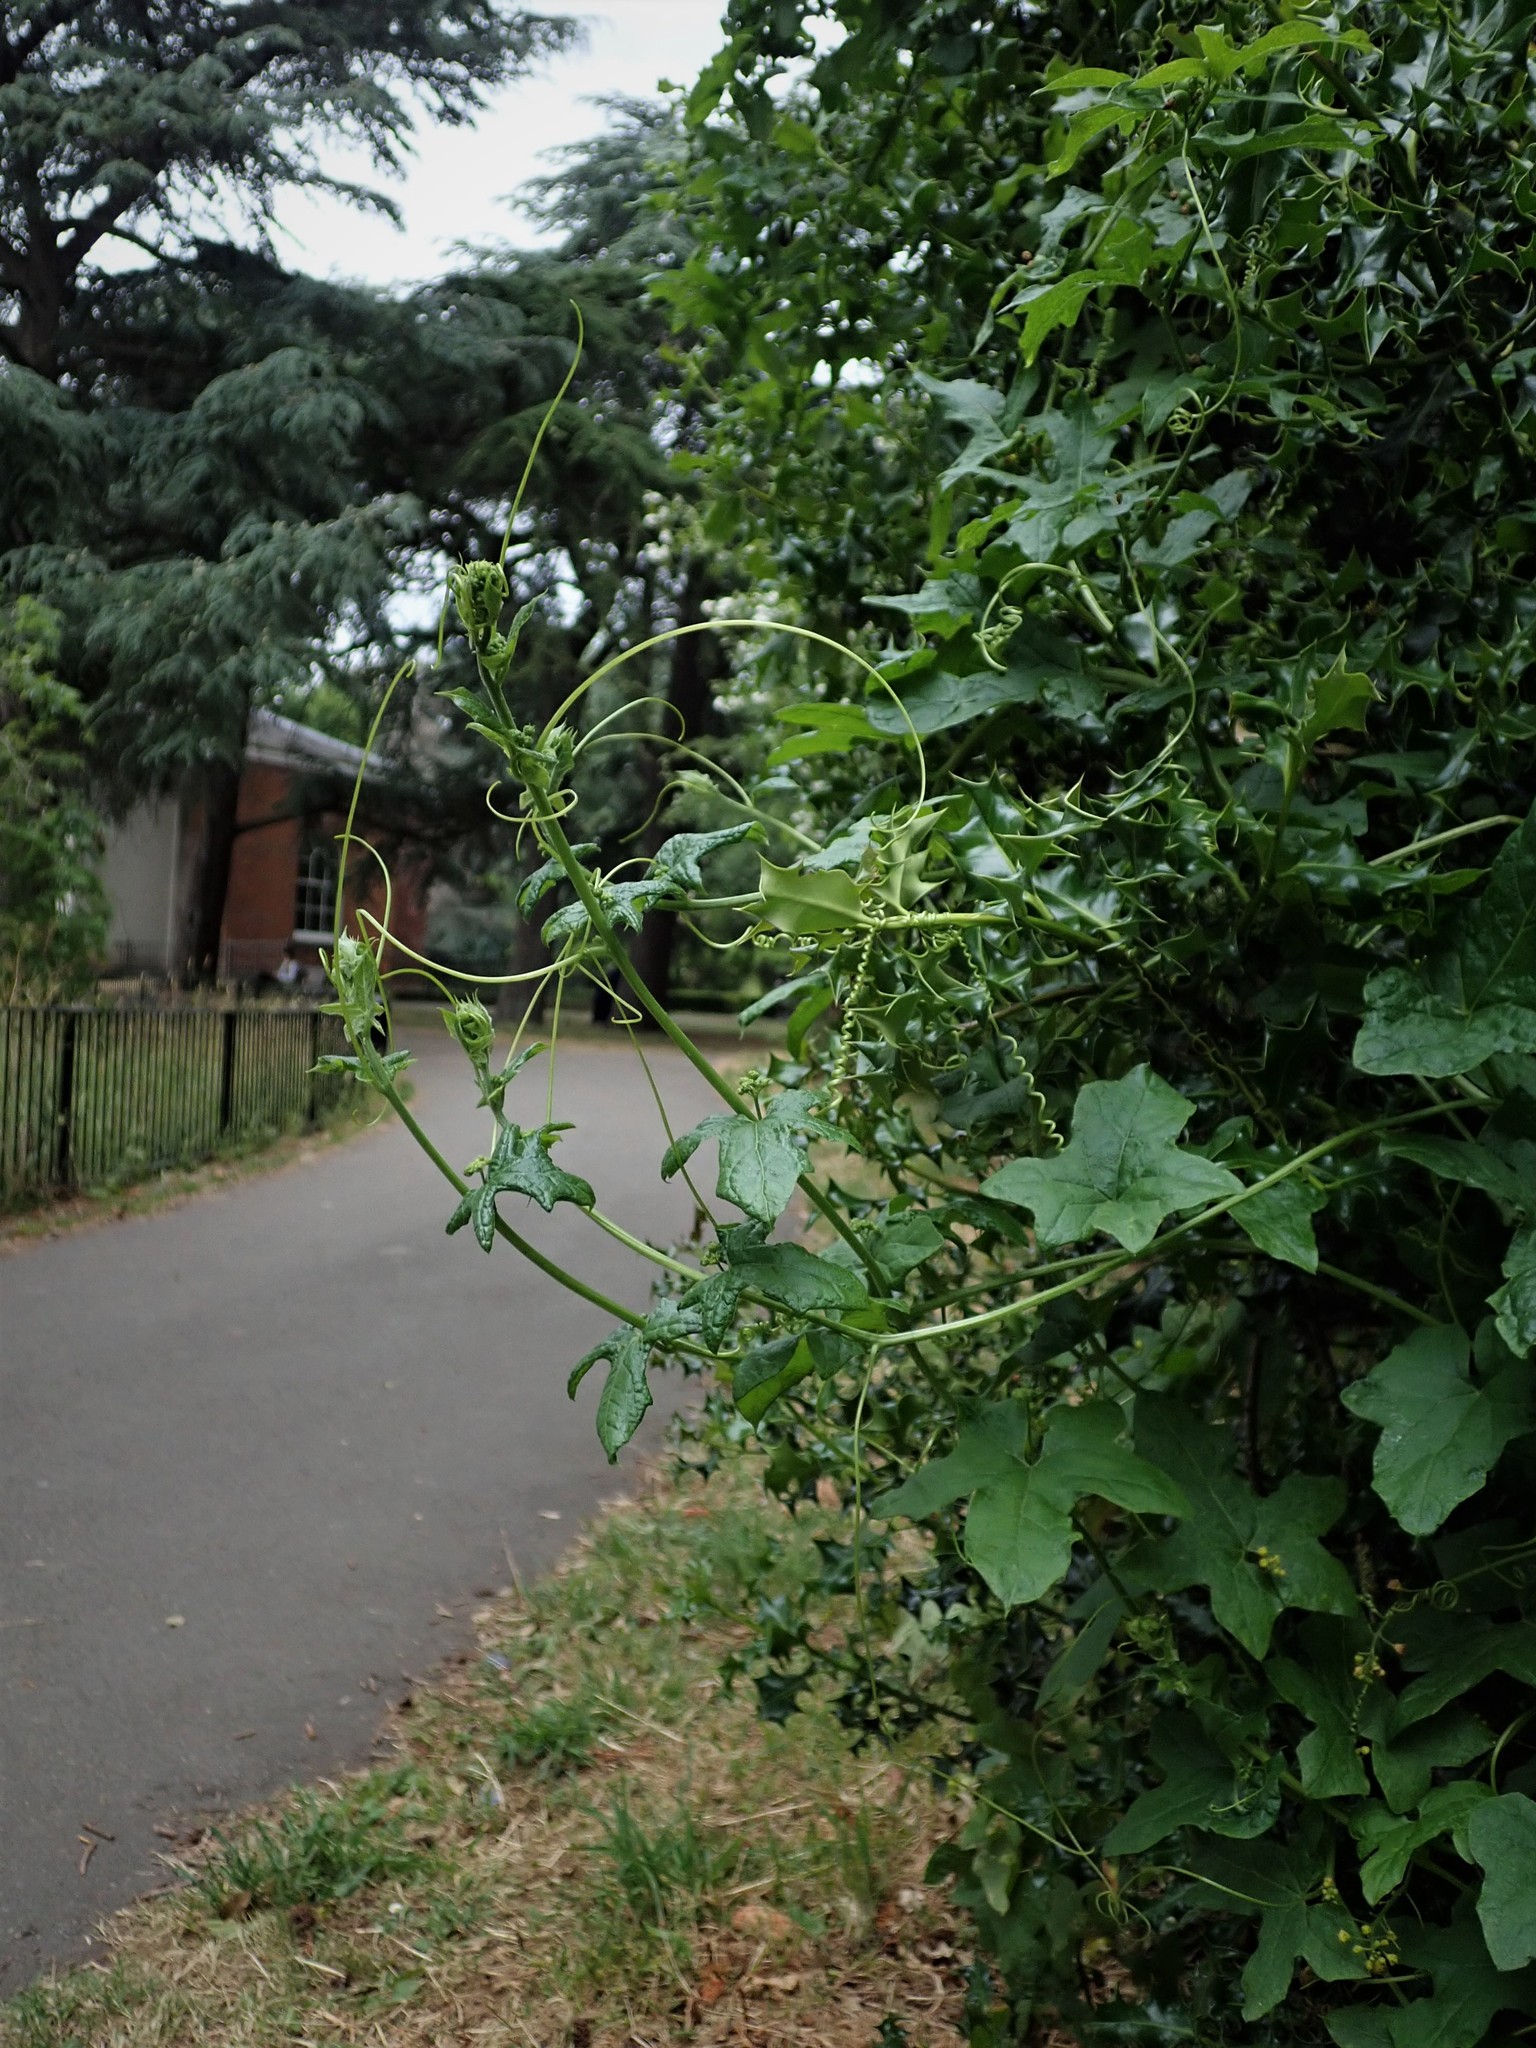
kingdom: Plantae
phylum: Tracheophyta
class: Magnoliopsida
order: Cucurbitales
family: Cucurbitaceae
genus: Bryonia
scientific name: Bryonia cretica
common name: Cretan bryony
